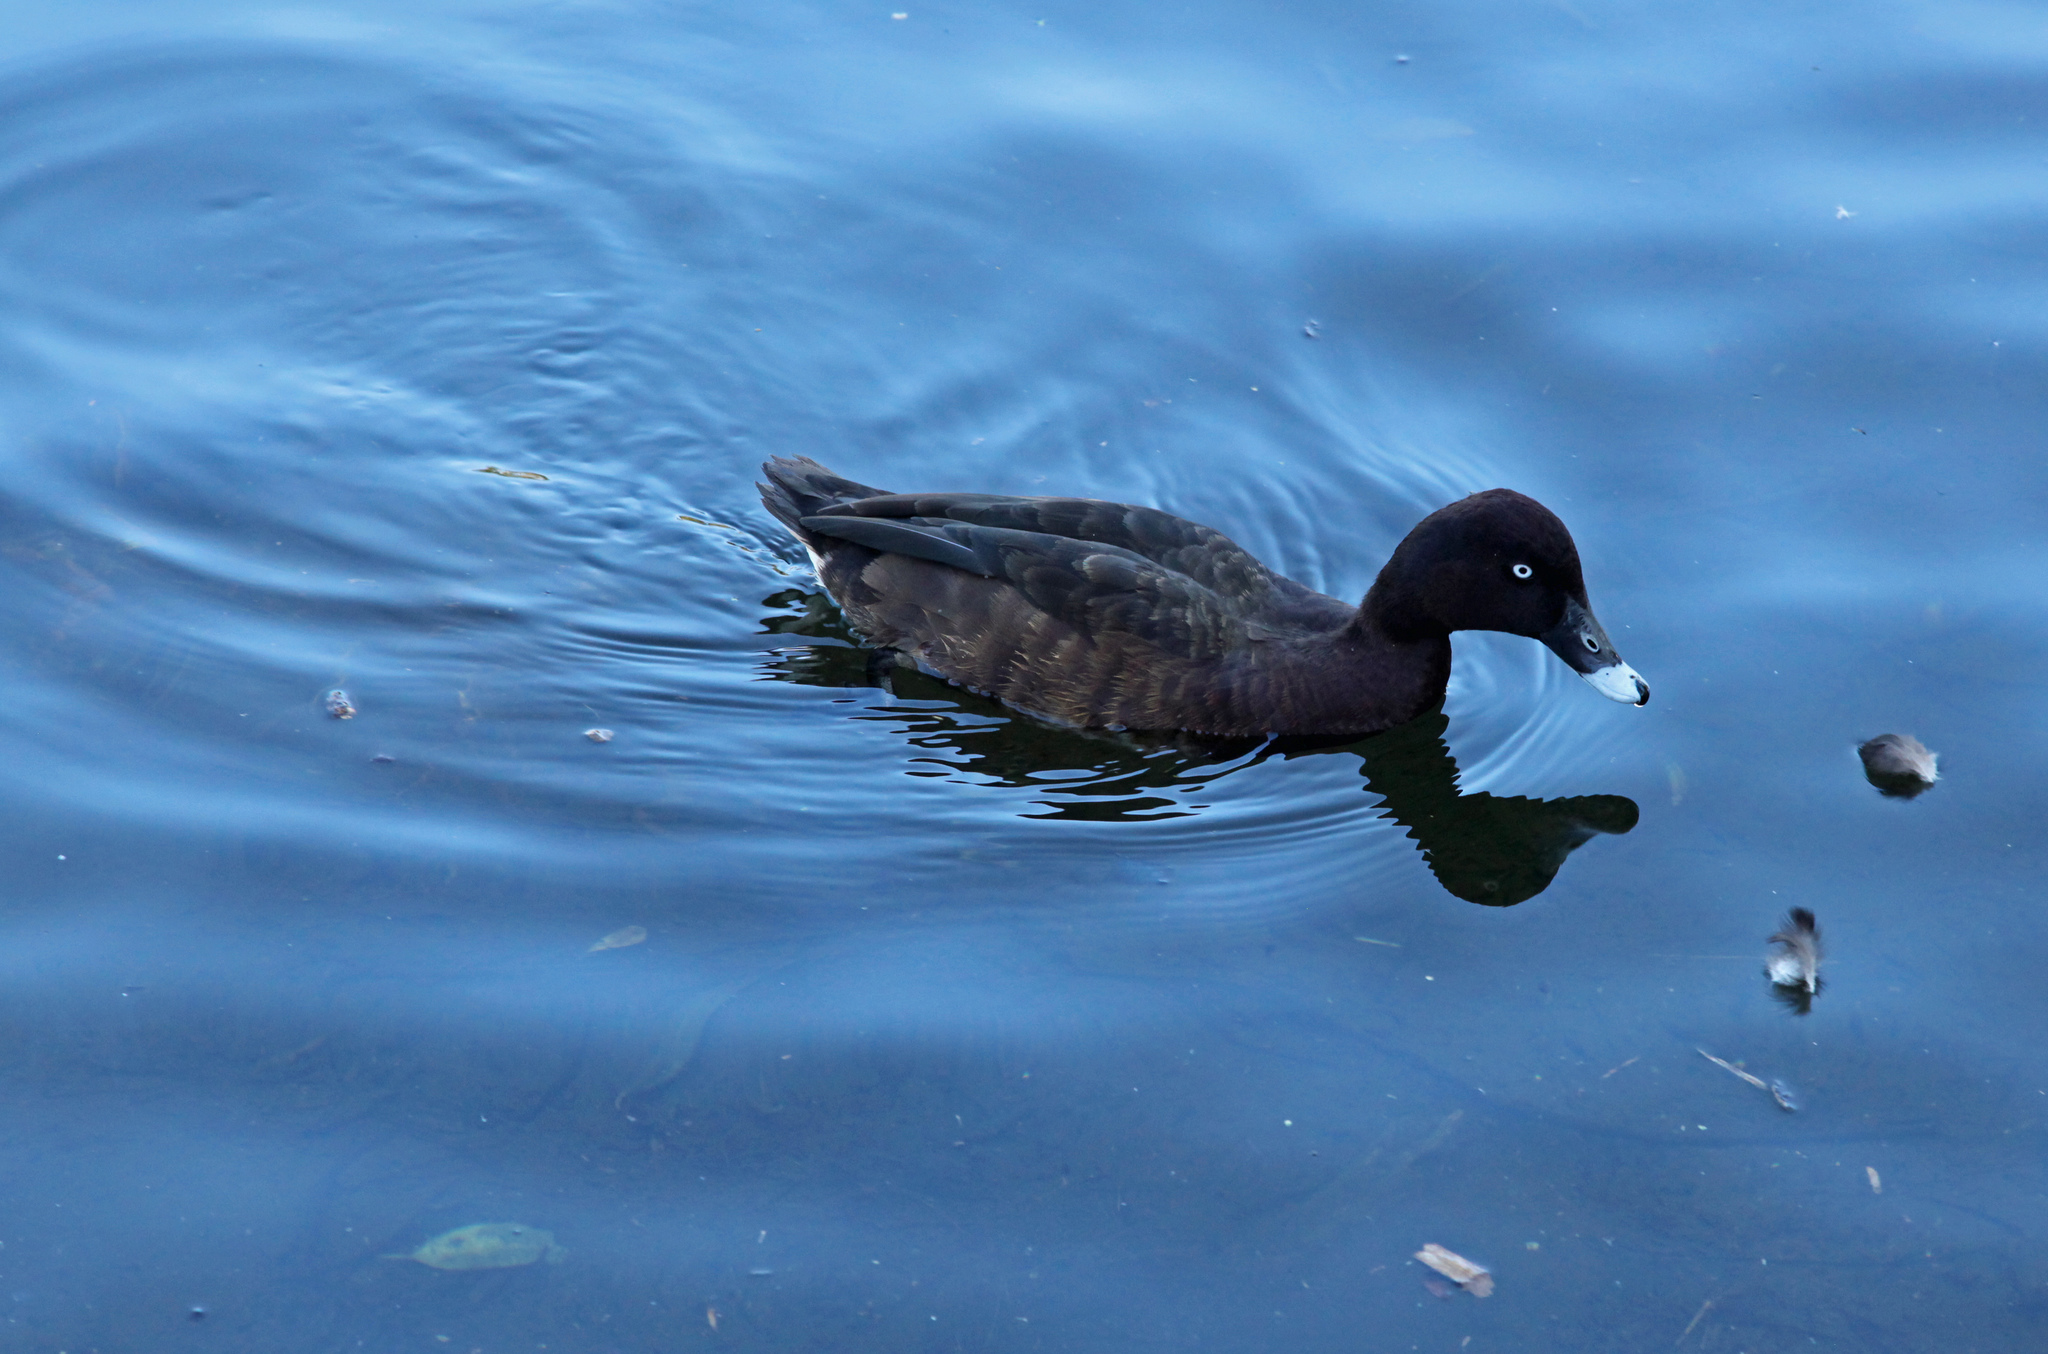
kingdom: Animalia
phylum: Chordata
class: Aves
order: Anseriformes
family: Anatidae
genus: Aythya
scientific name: Aythya australis
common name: Hardhead
